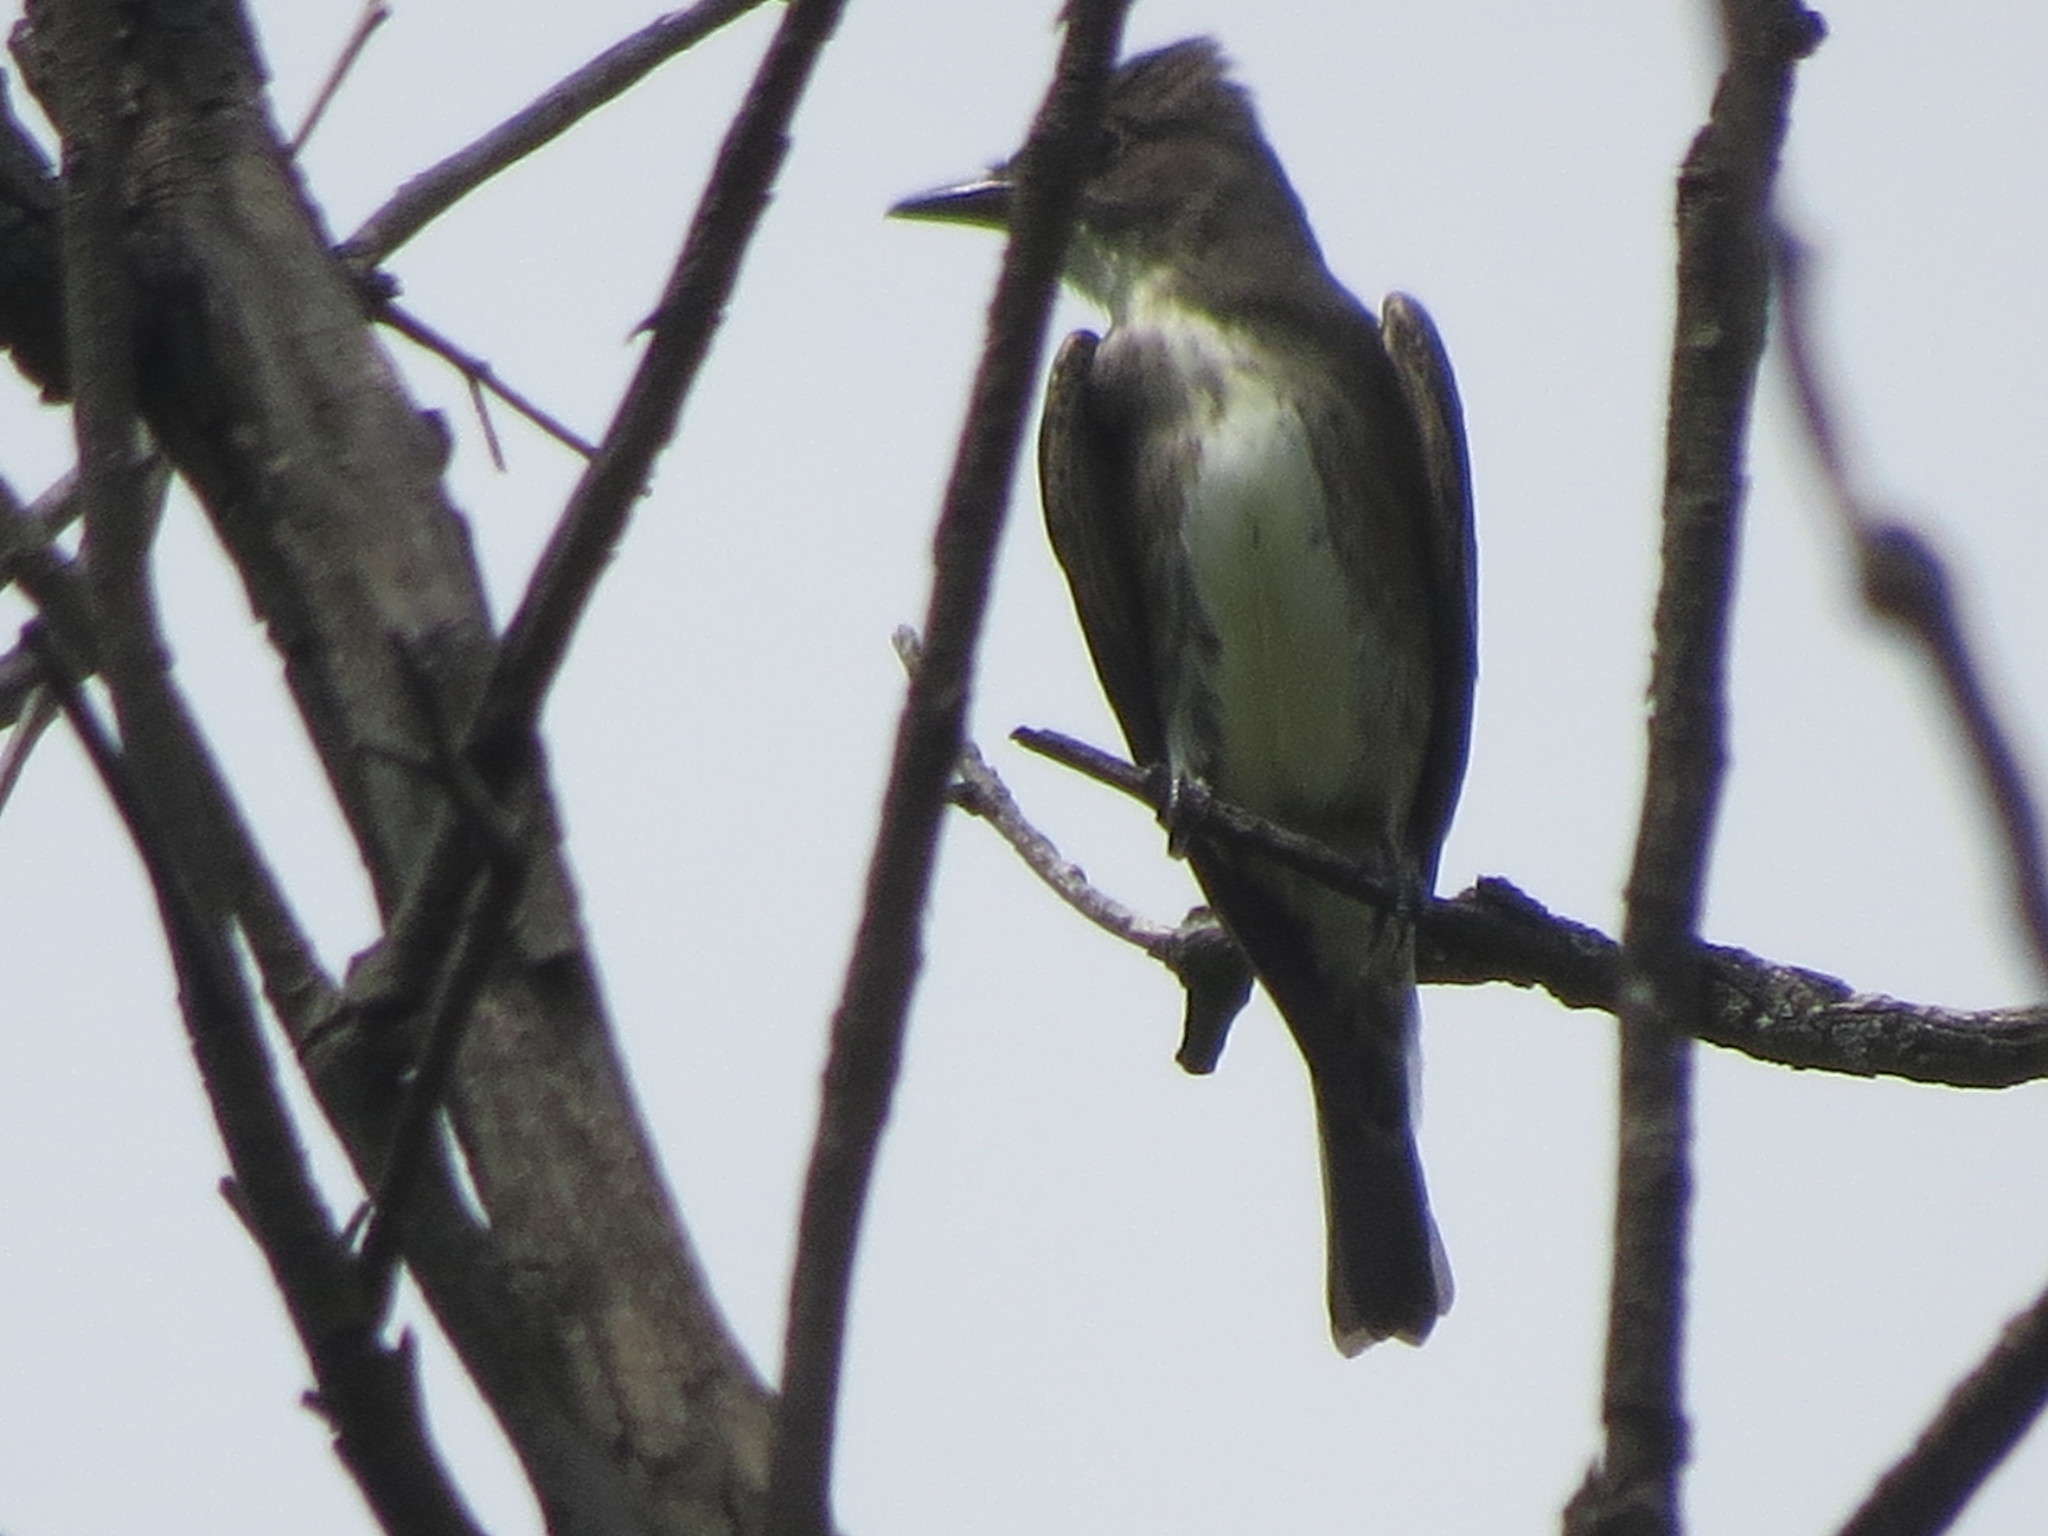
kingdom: Animalia
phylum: Chordata
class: Aves
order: Passeriformes
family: Tyrannidae
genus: Contopus
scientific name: Contopus cooperi
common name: Olive-sided flycatcher
